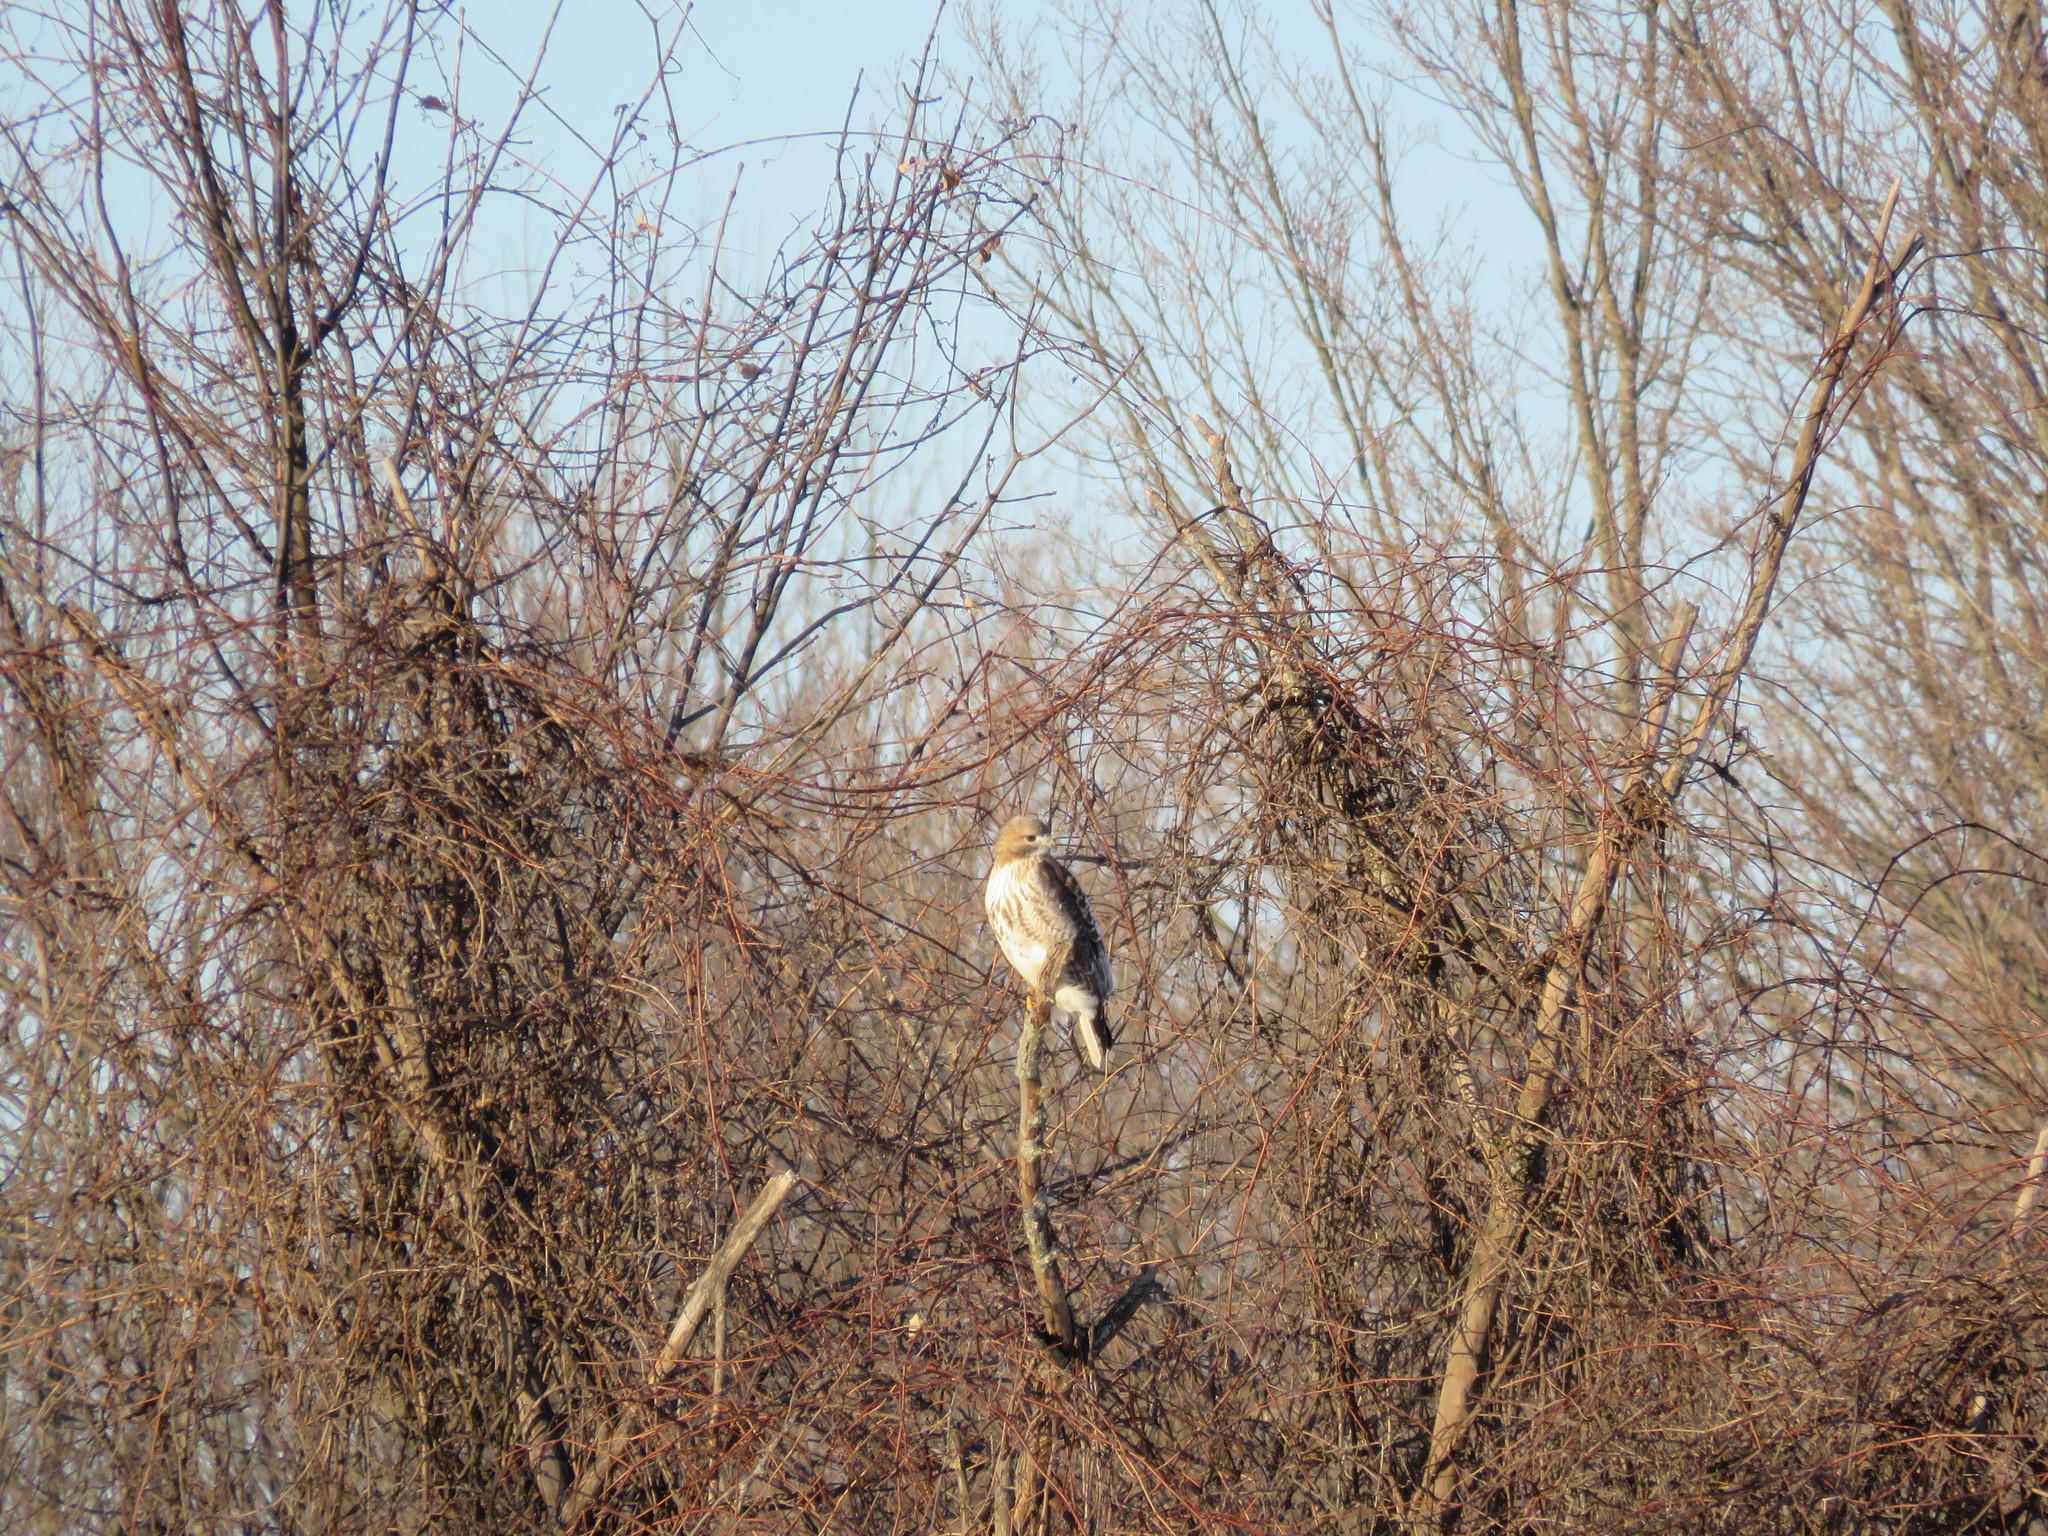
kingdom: Animalia
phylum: Chordata
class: Aves
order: Accipitriformes
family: Accipitridae
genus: Buteo
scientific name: Buteo jamaicensis
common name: Red-tailed hawk
